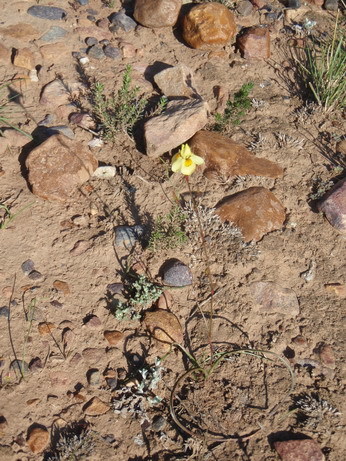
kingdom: Plantae
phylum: Tracheophyta
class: Liliopsida
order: Asparagales
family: Iridaceae
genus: Moraea
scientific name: Moraea gawleri
